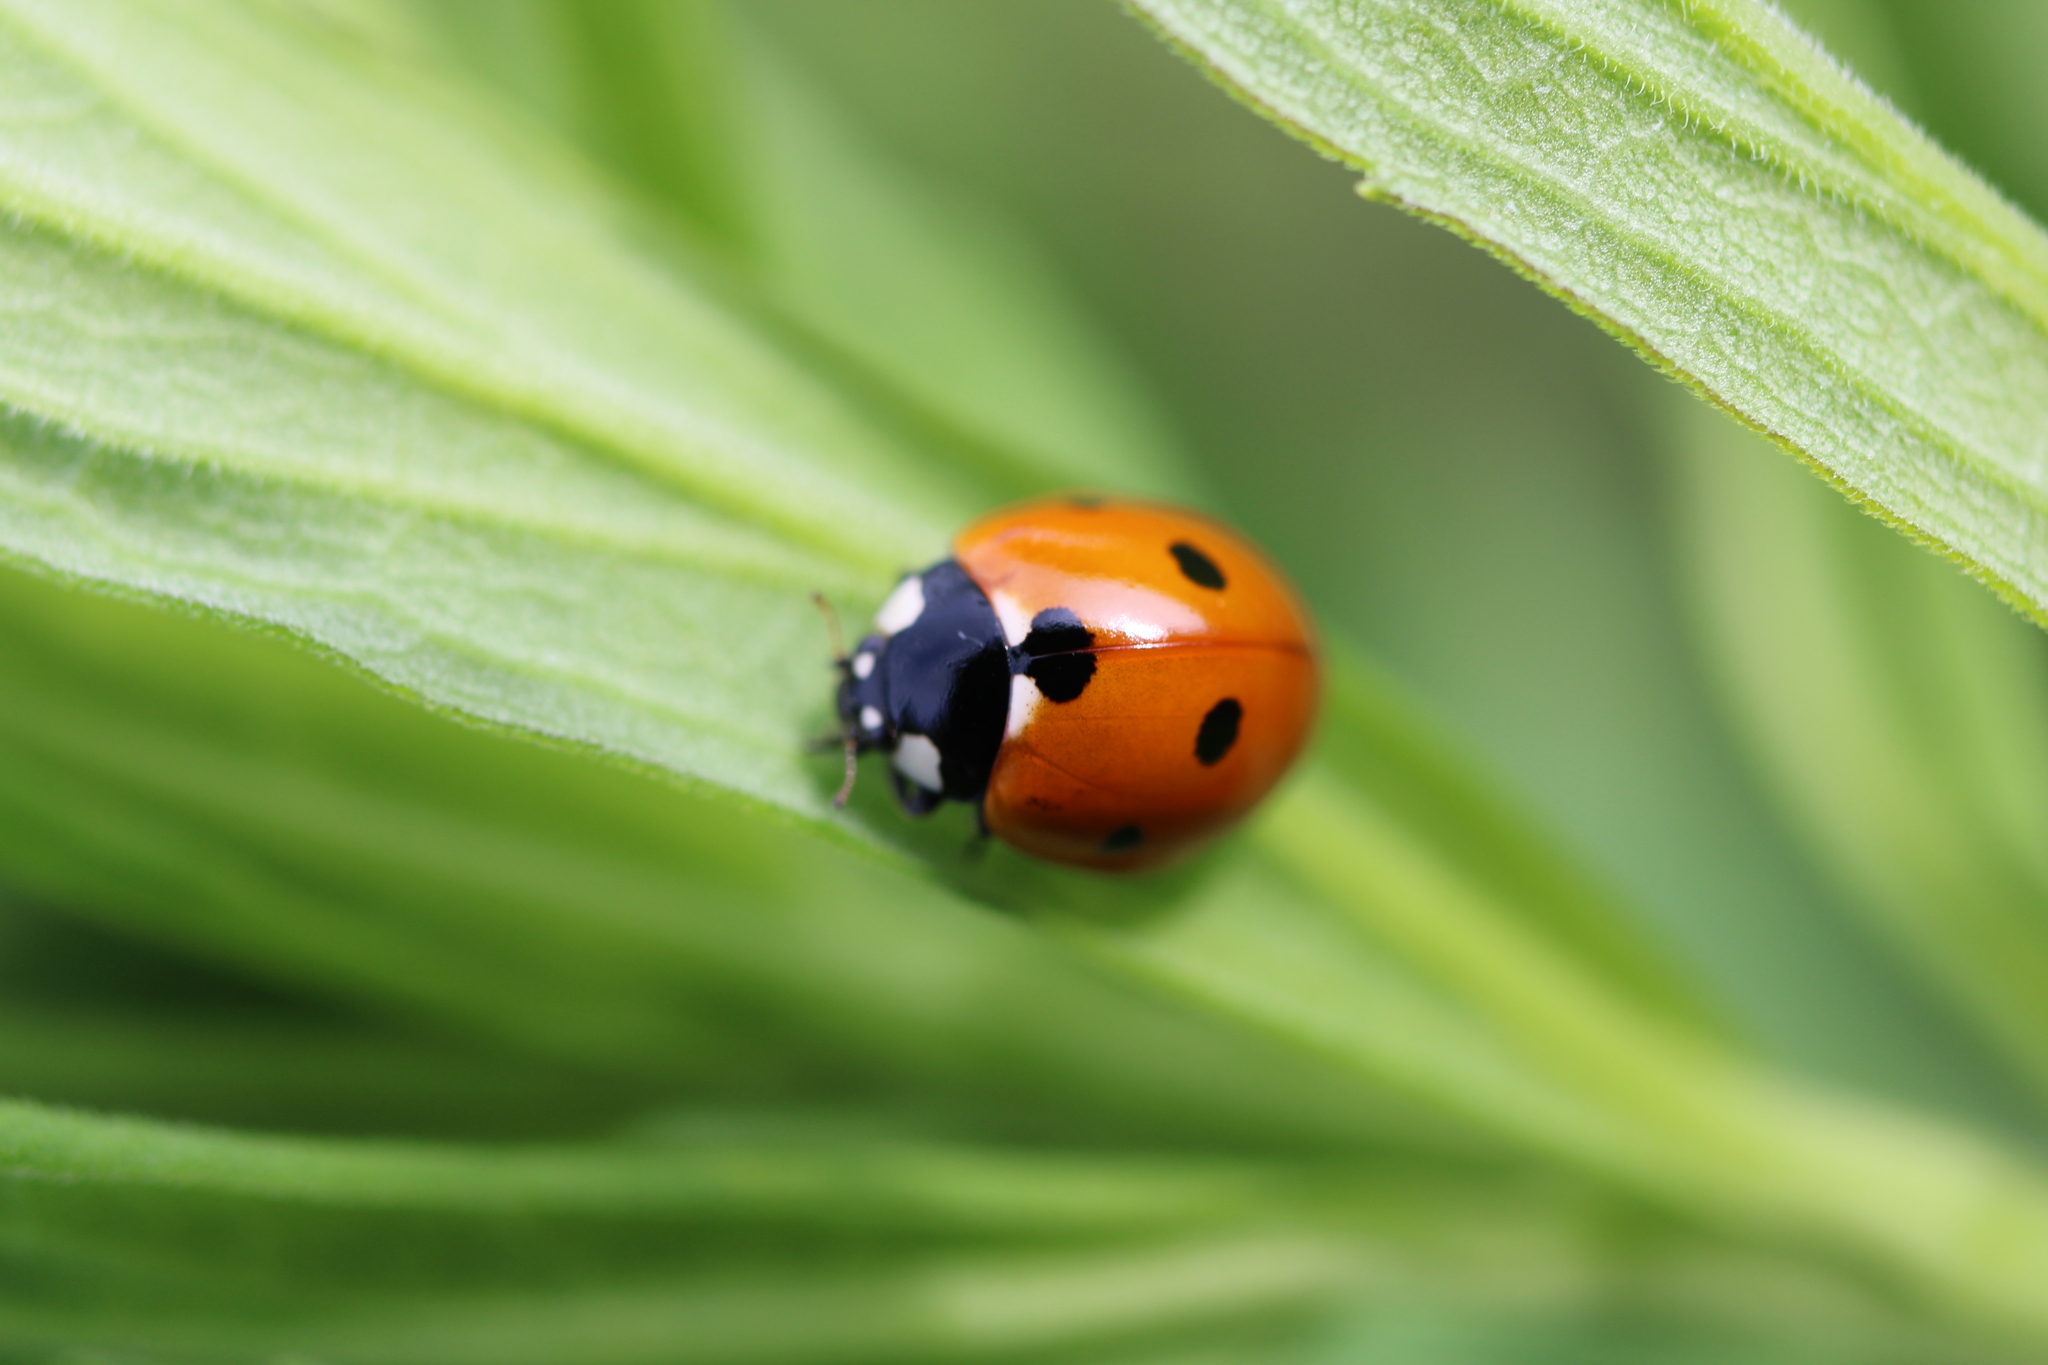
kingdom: Animalia
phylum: Arthropoda
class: Insecta
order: Coleoptera
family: Coccinellidae
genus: Coccinella
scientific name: Coccinella septempunctata
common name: Sevenspotted lady beetle
